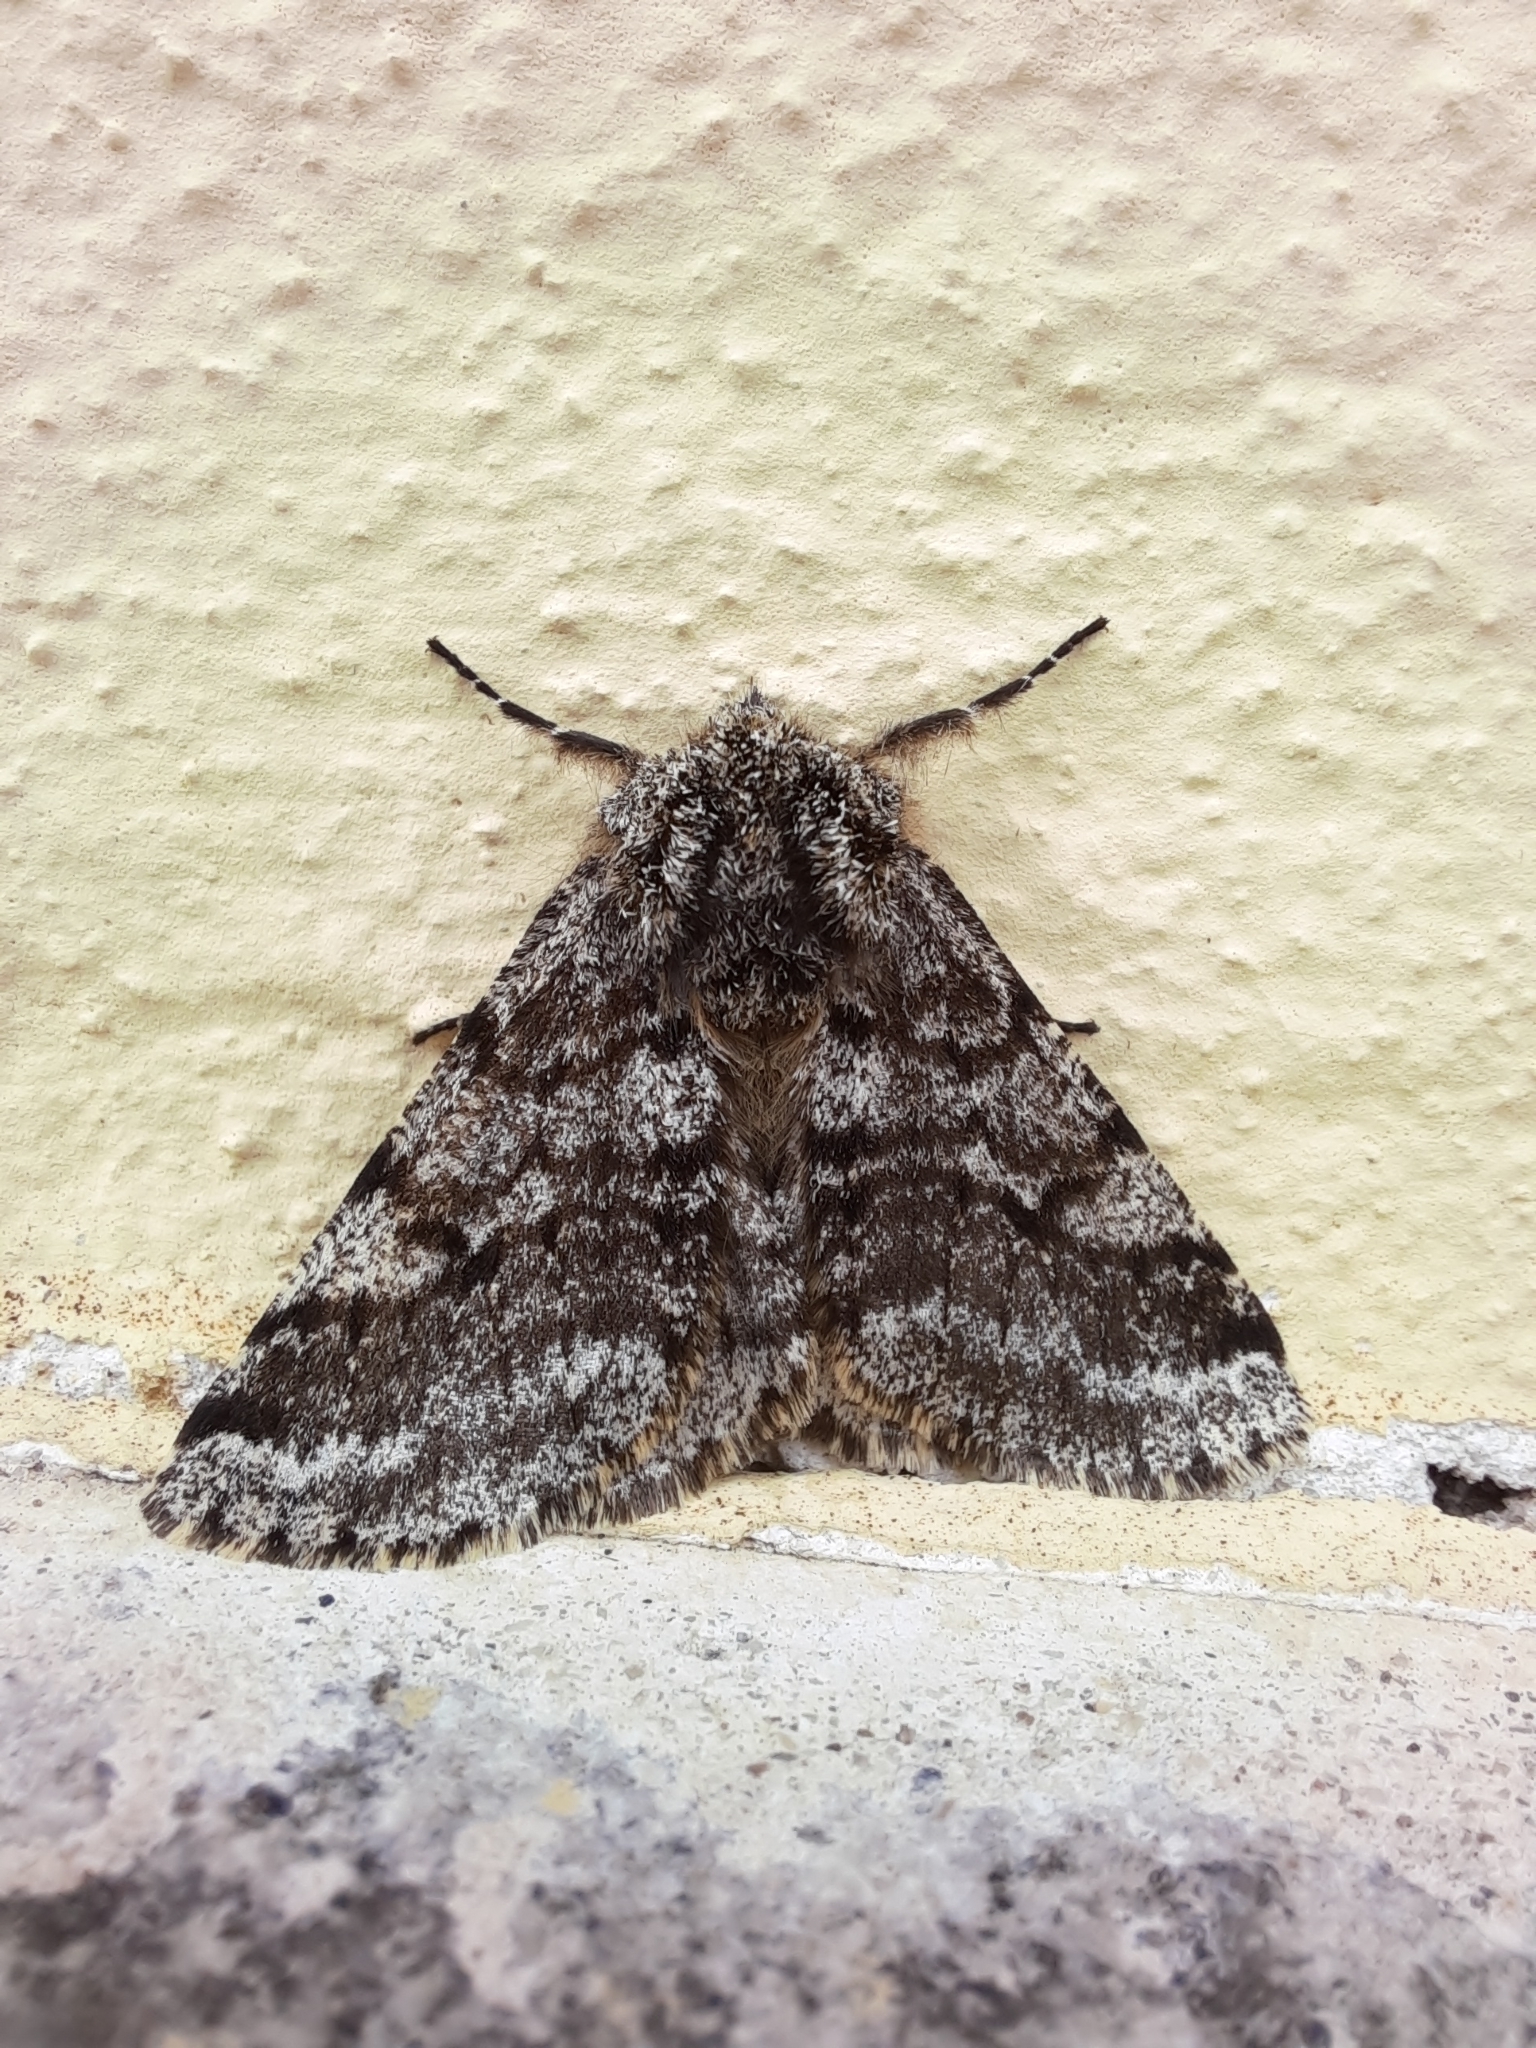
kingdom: Animalia
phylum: Arthropoda
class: Insecta
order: Lepidoptera
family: Geometridae
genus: Lycia
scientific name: Lycia hirtaria
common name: Brindled beauty
